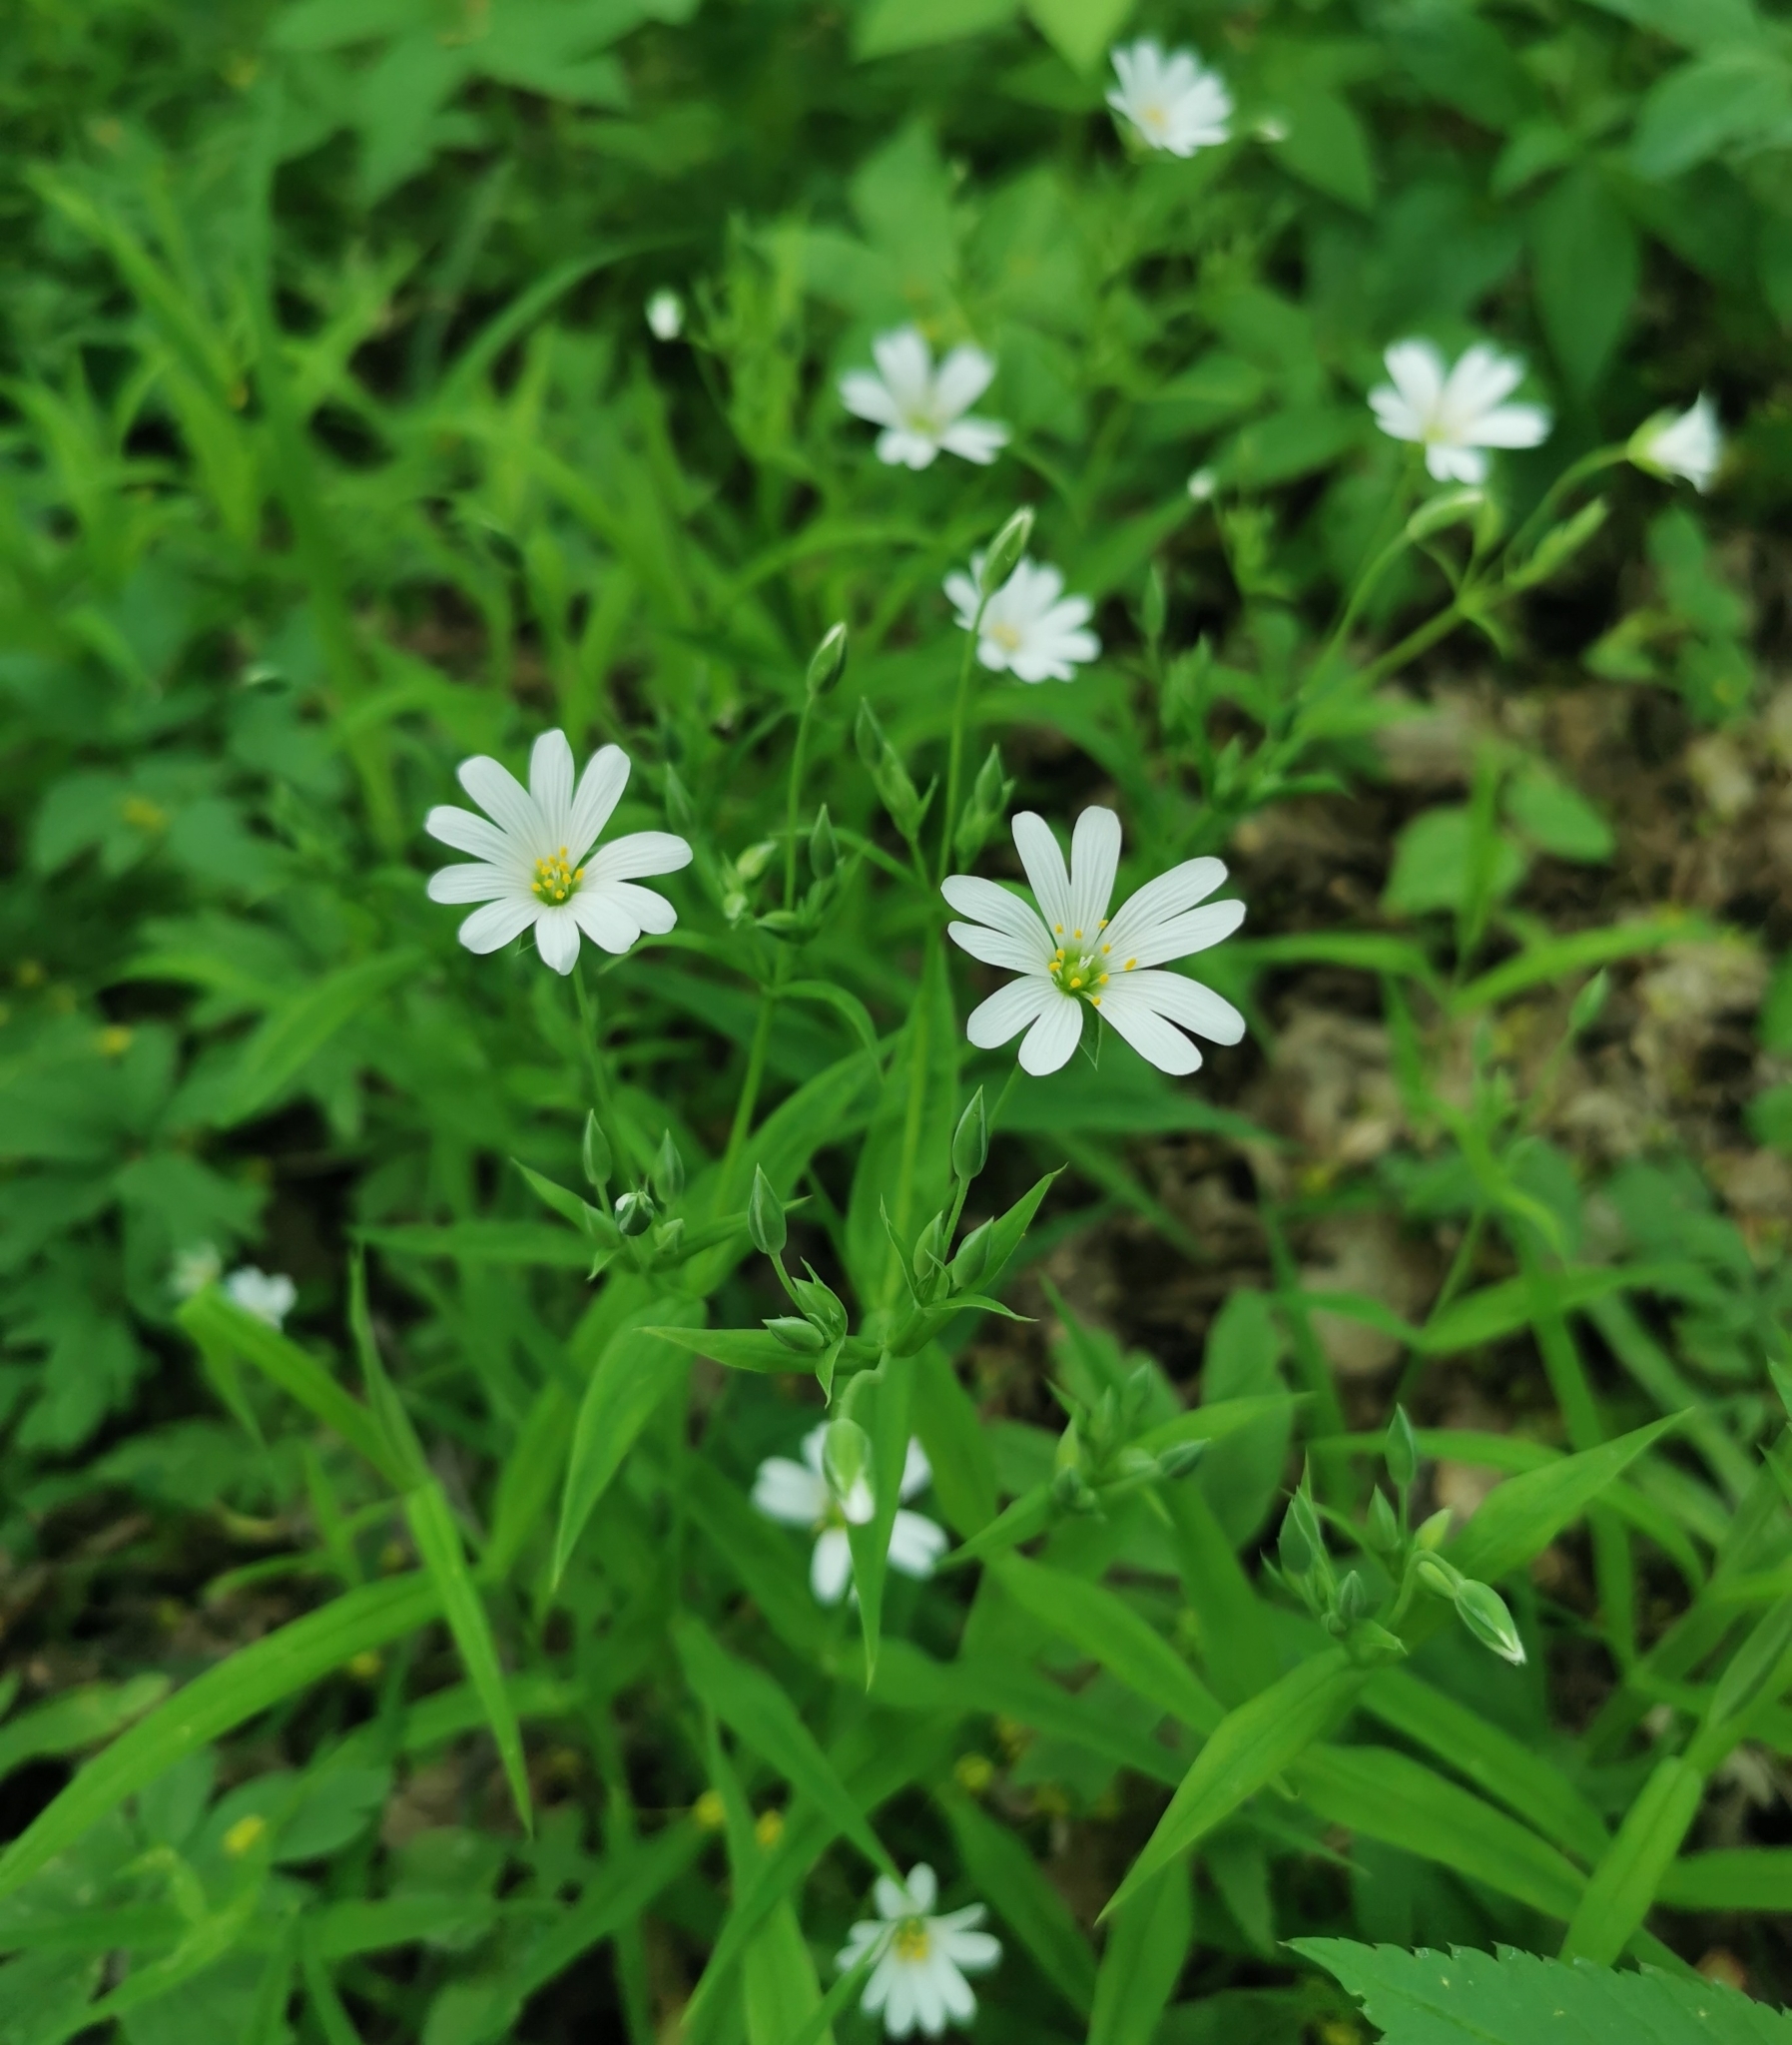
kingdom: Plantae
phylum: Tracheophyta
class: Magnoliopsida
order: Caryophyllales
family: Caryophyllaceae
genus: Rabelera
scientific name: Rabelera holostea
